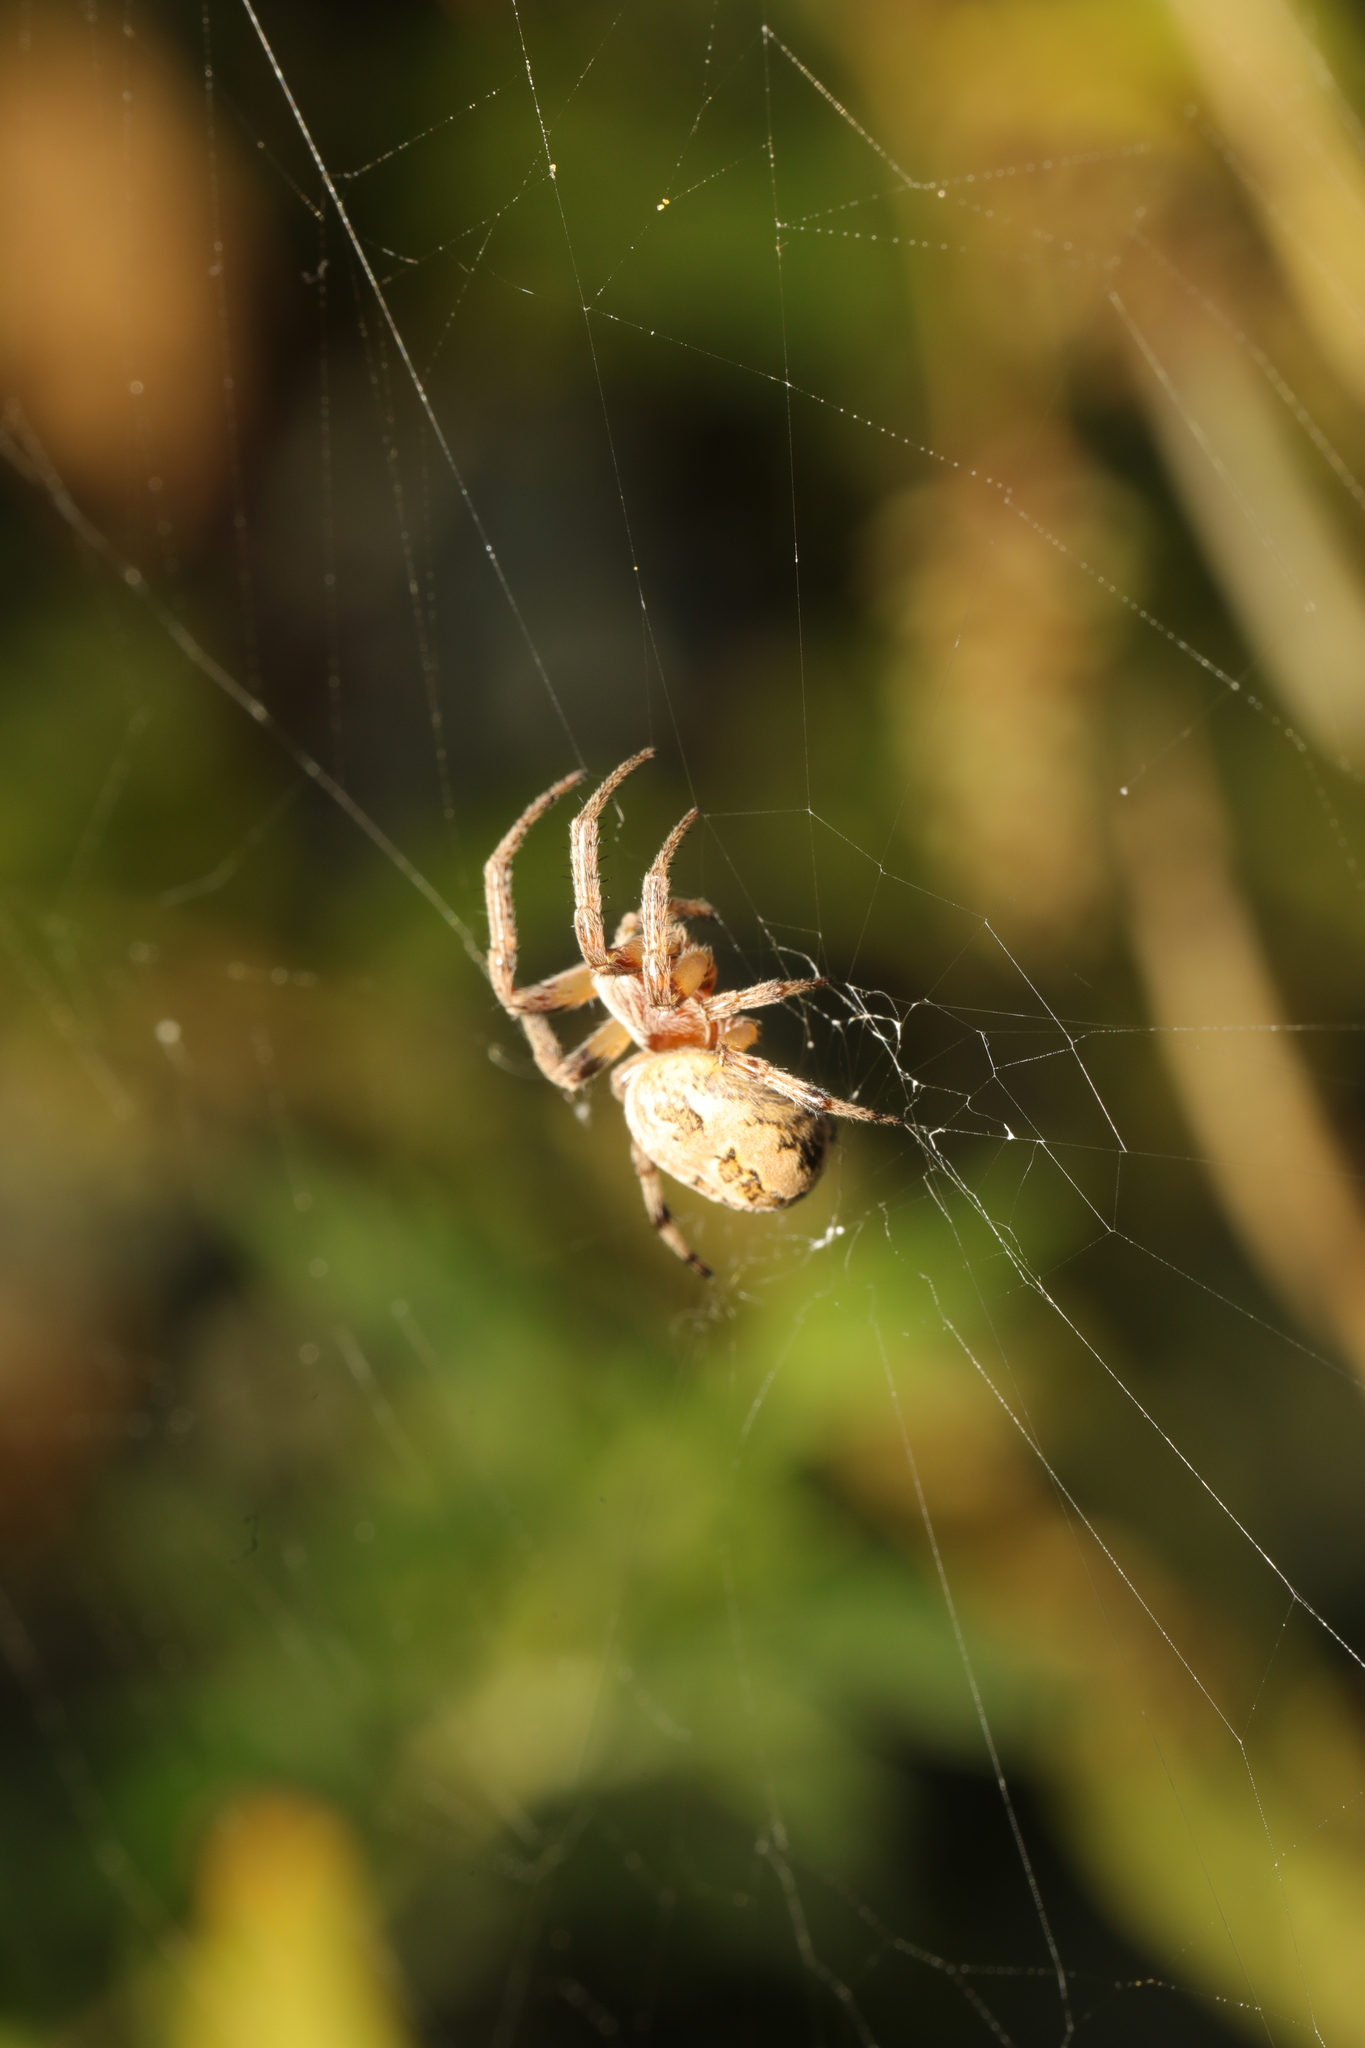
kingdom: Animalia
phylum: Arthropoda
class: Arachnida
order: Araneae
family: Araneidae
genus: Larinioides
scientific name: Larinioides cornutus
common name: Furrow orbweaver
